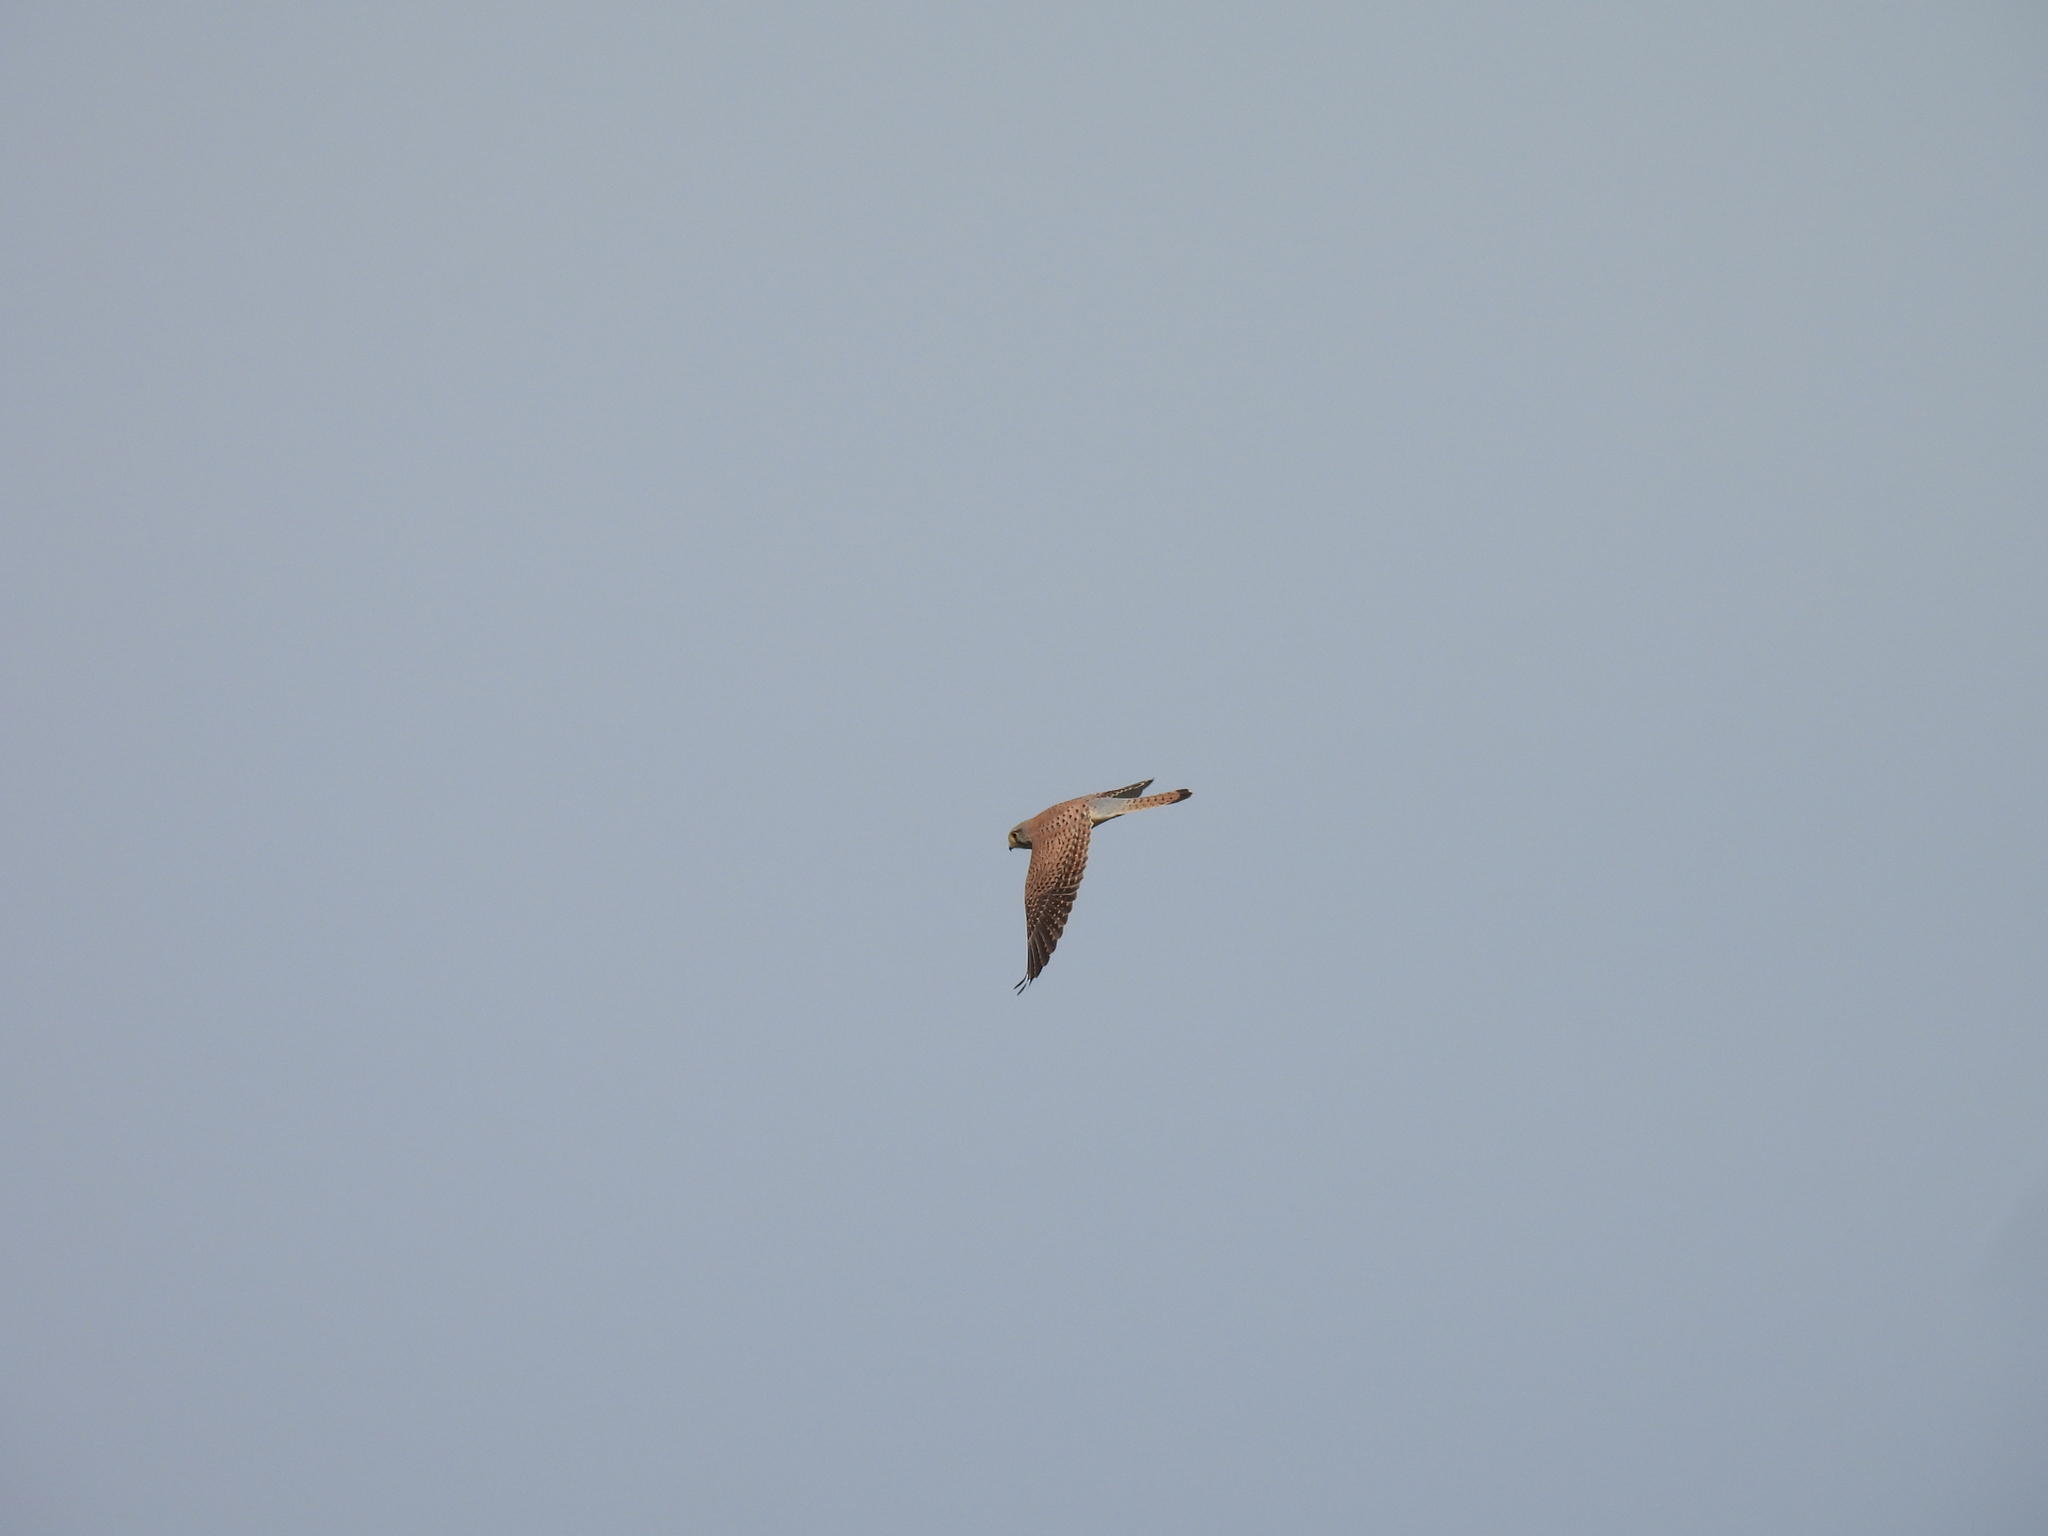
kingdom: Animalia
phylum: Chordata
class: Aves
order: Falconiformes
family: Falconidae
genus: Falco
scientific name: Falco tinnunculus
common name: Common kestrel
